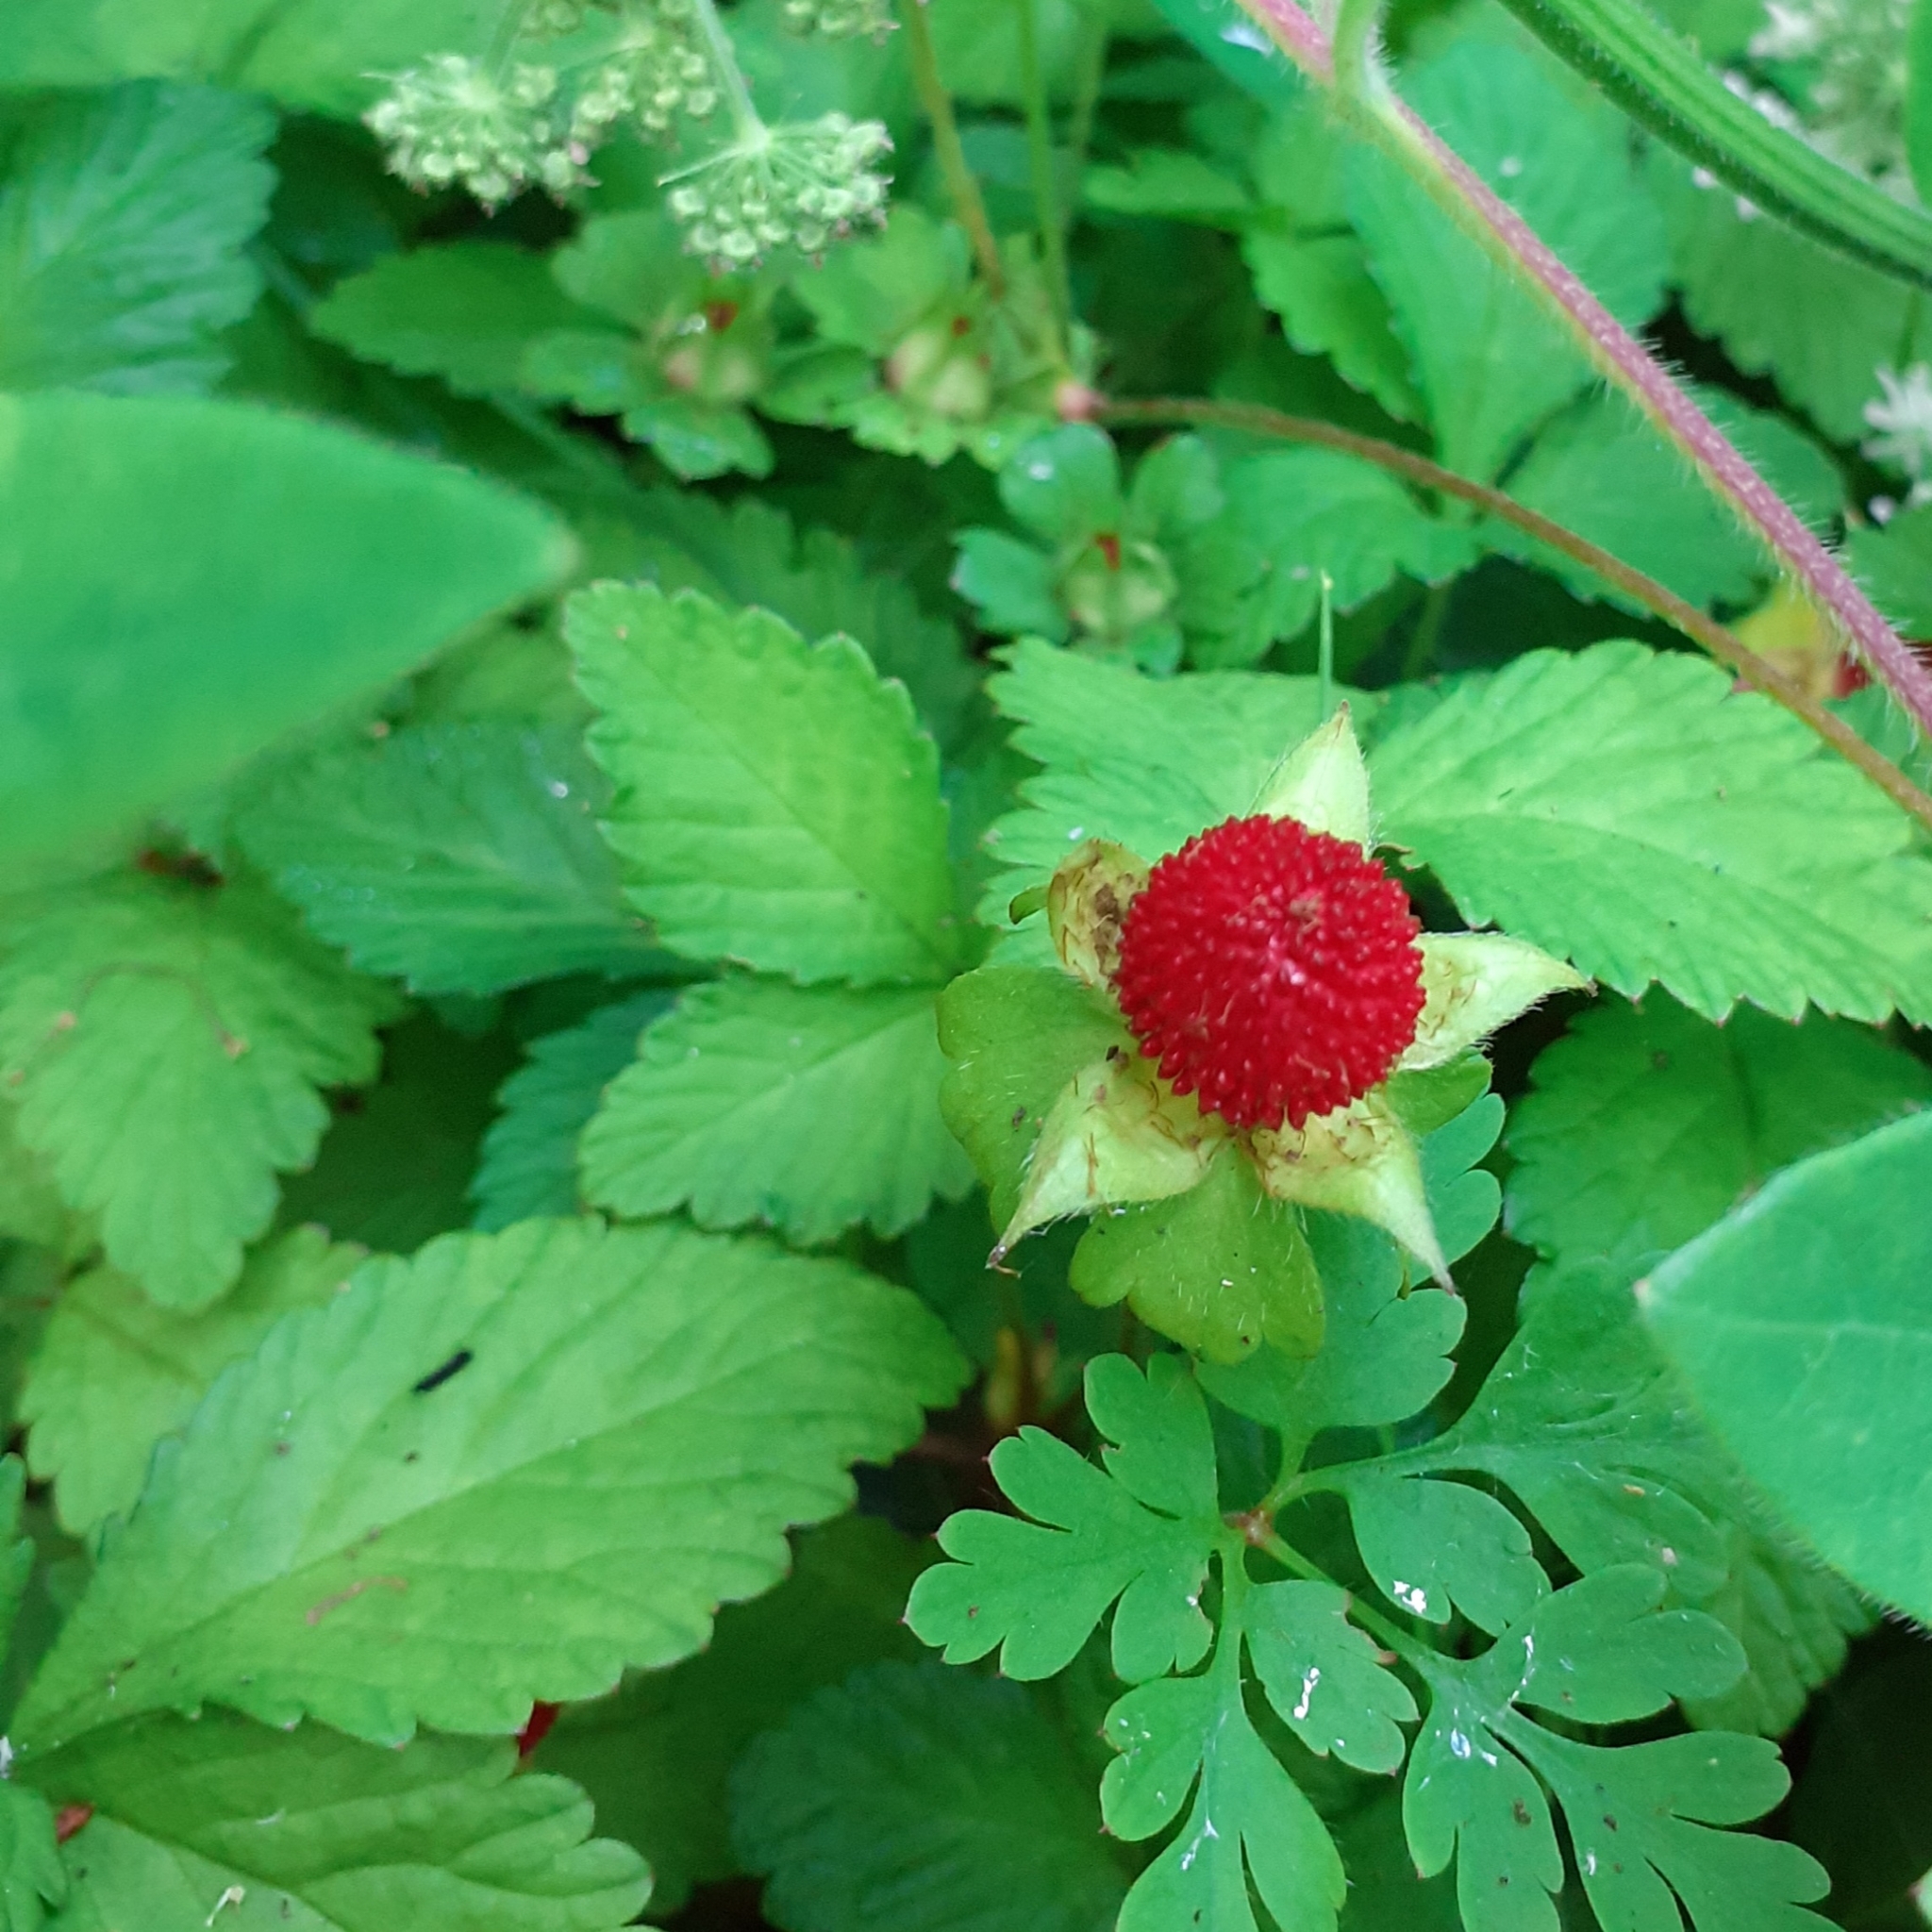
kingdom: Plantae
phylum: Tracheophyta
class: Magnoliopsida
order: Rosales
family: Rosaceae
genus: Potentilla
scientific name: Potentilla indica
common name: Yellow-flowered strawberry
